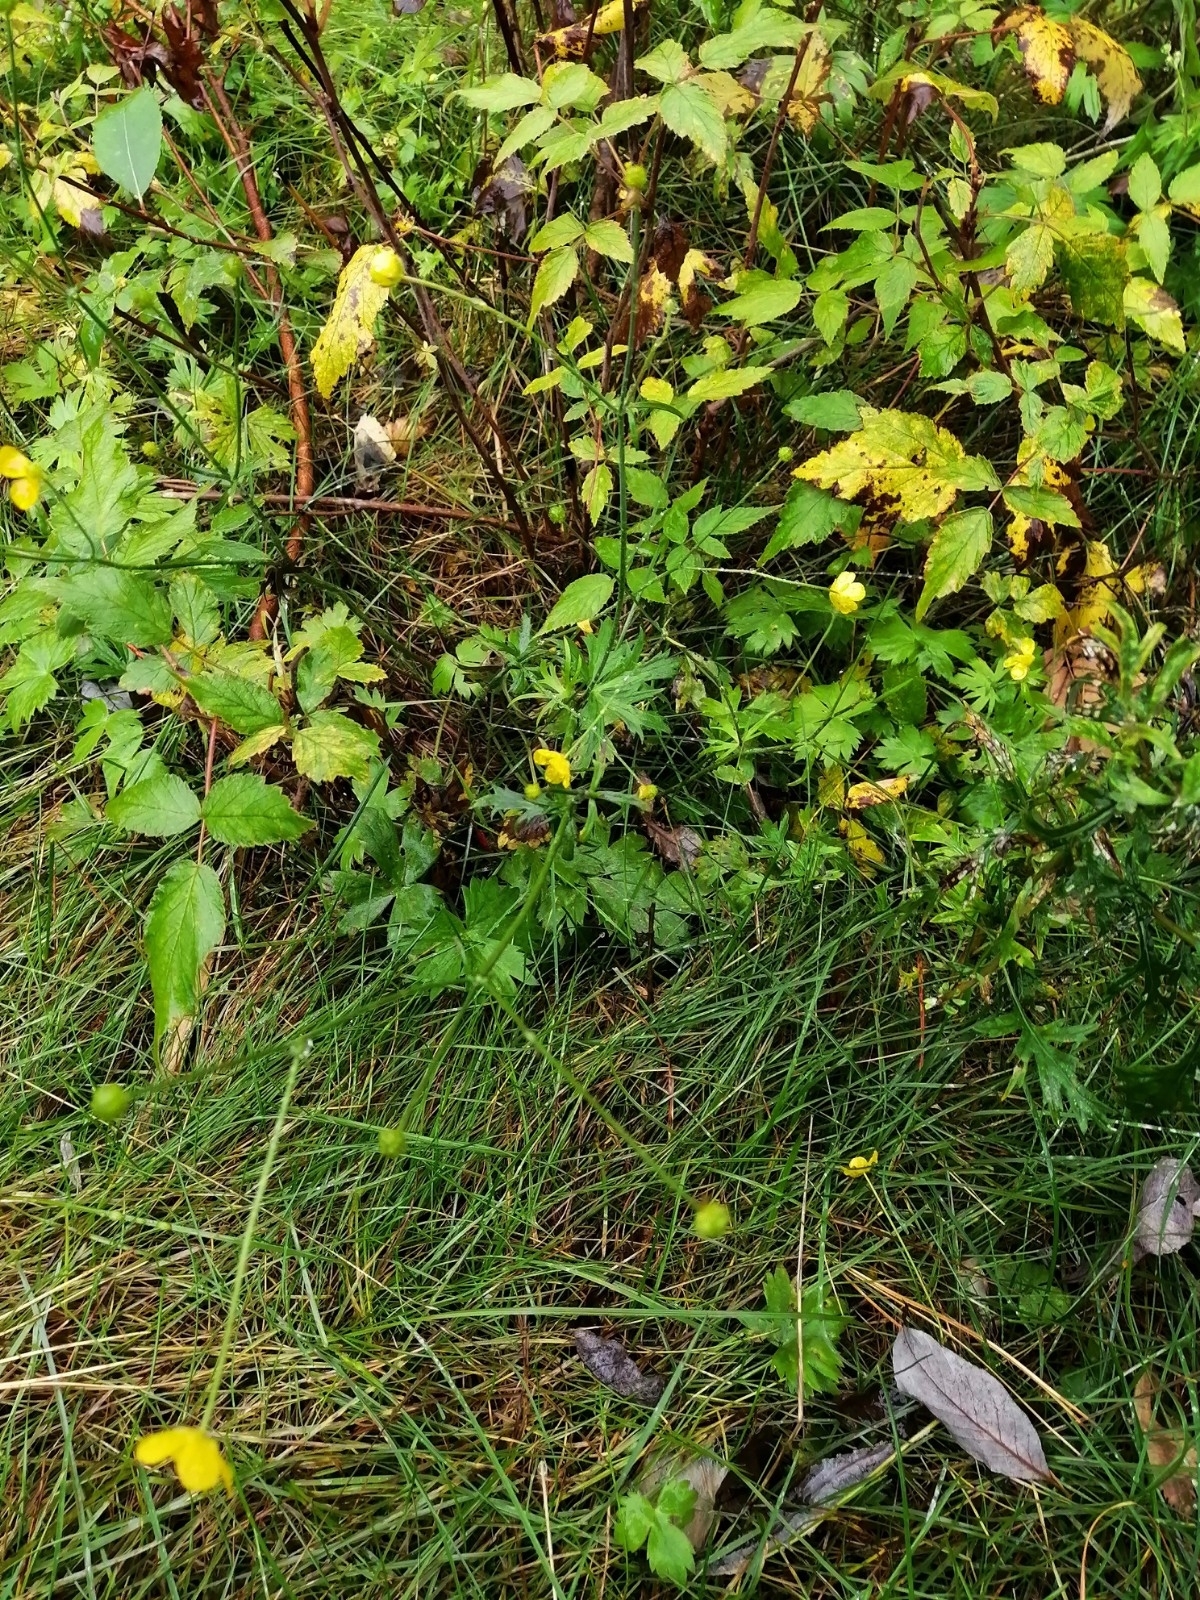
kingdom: Plantae
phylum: Tracheophyta
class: Magnoliopsida
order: Ranunculales
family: Ranunculaceae
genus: Ranunculus
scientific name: Ranunculus propinquus
